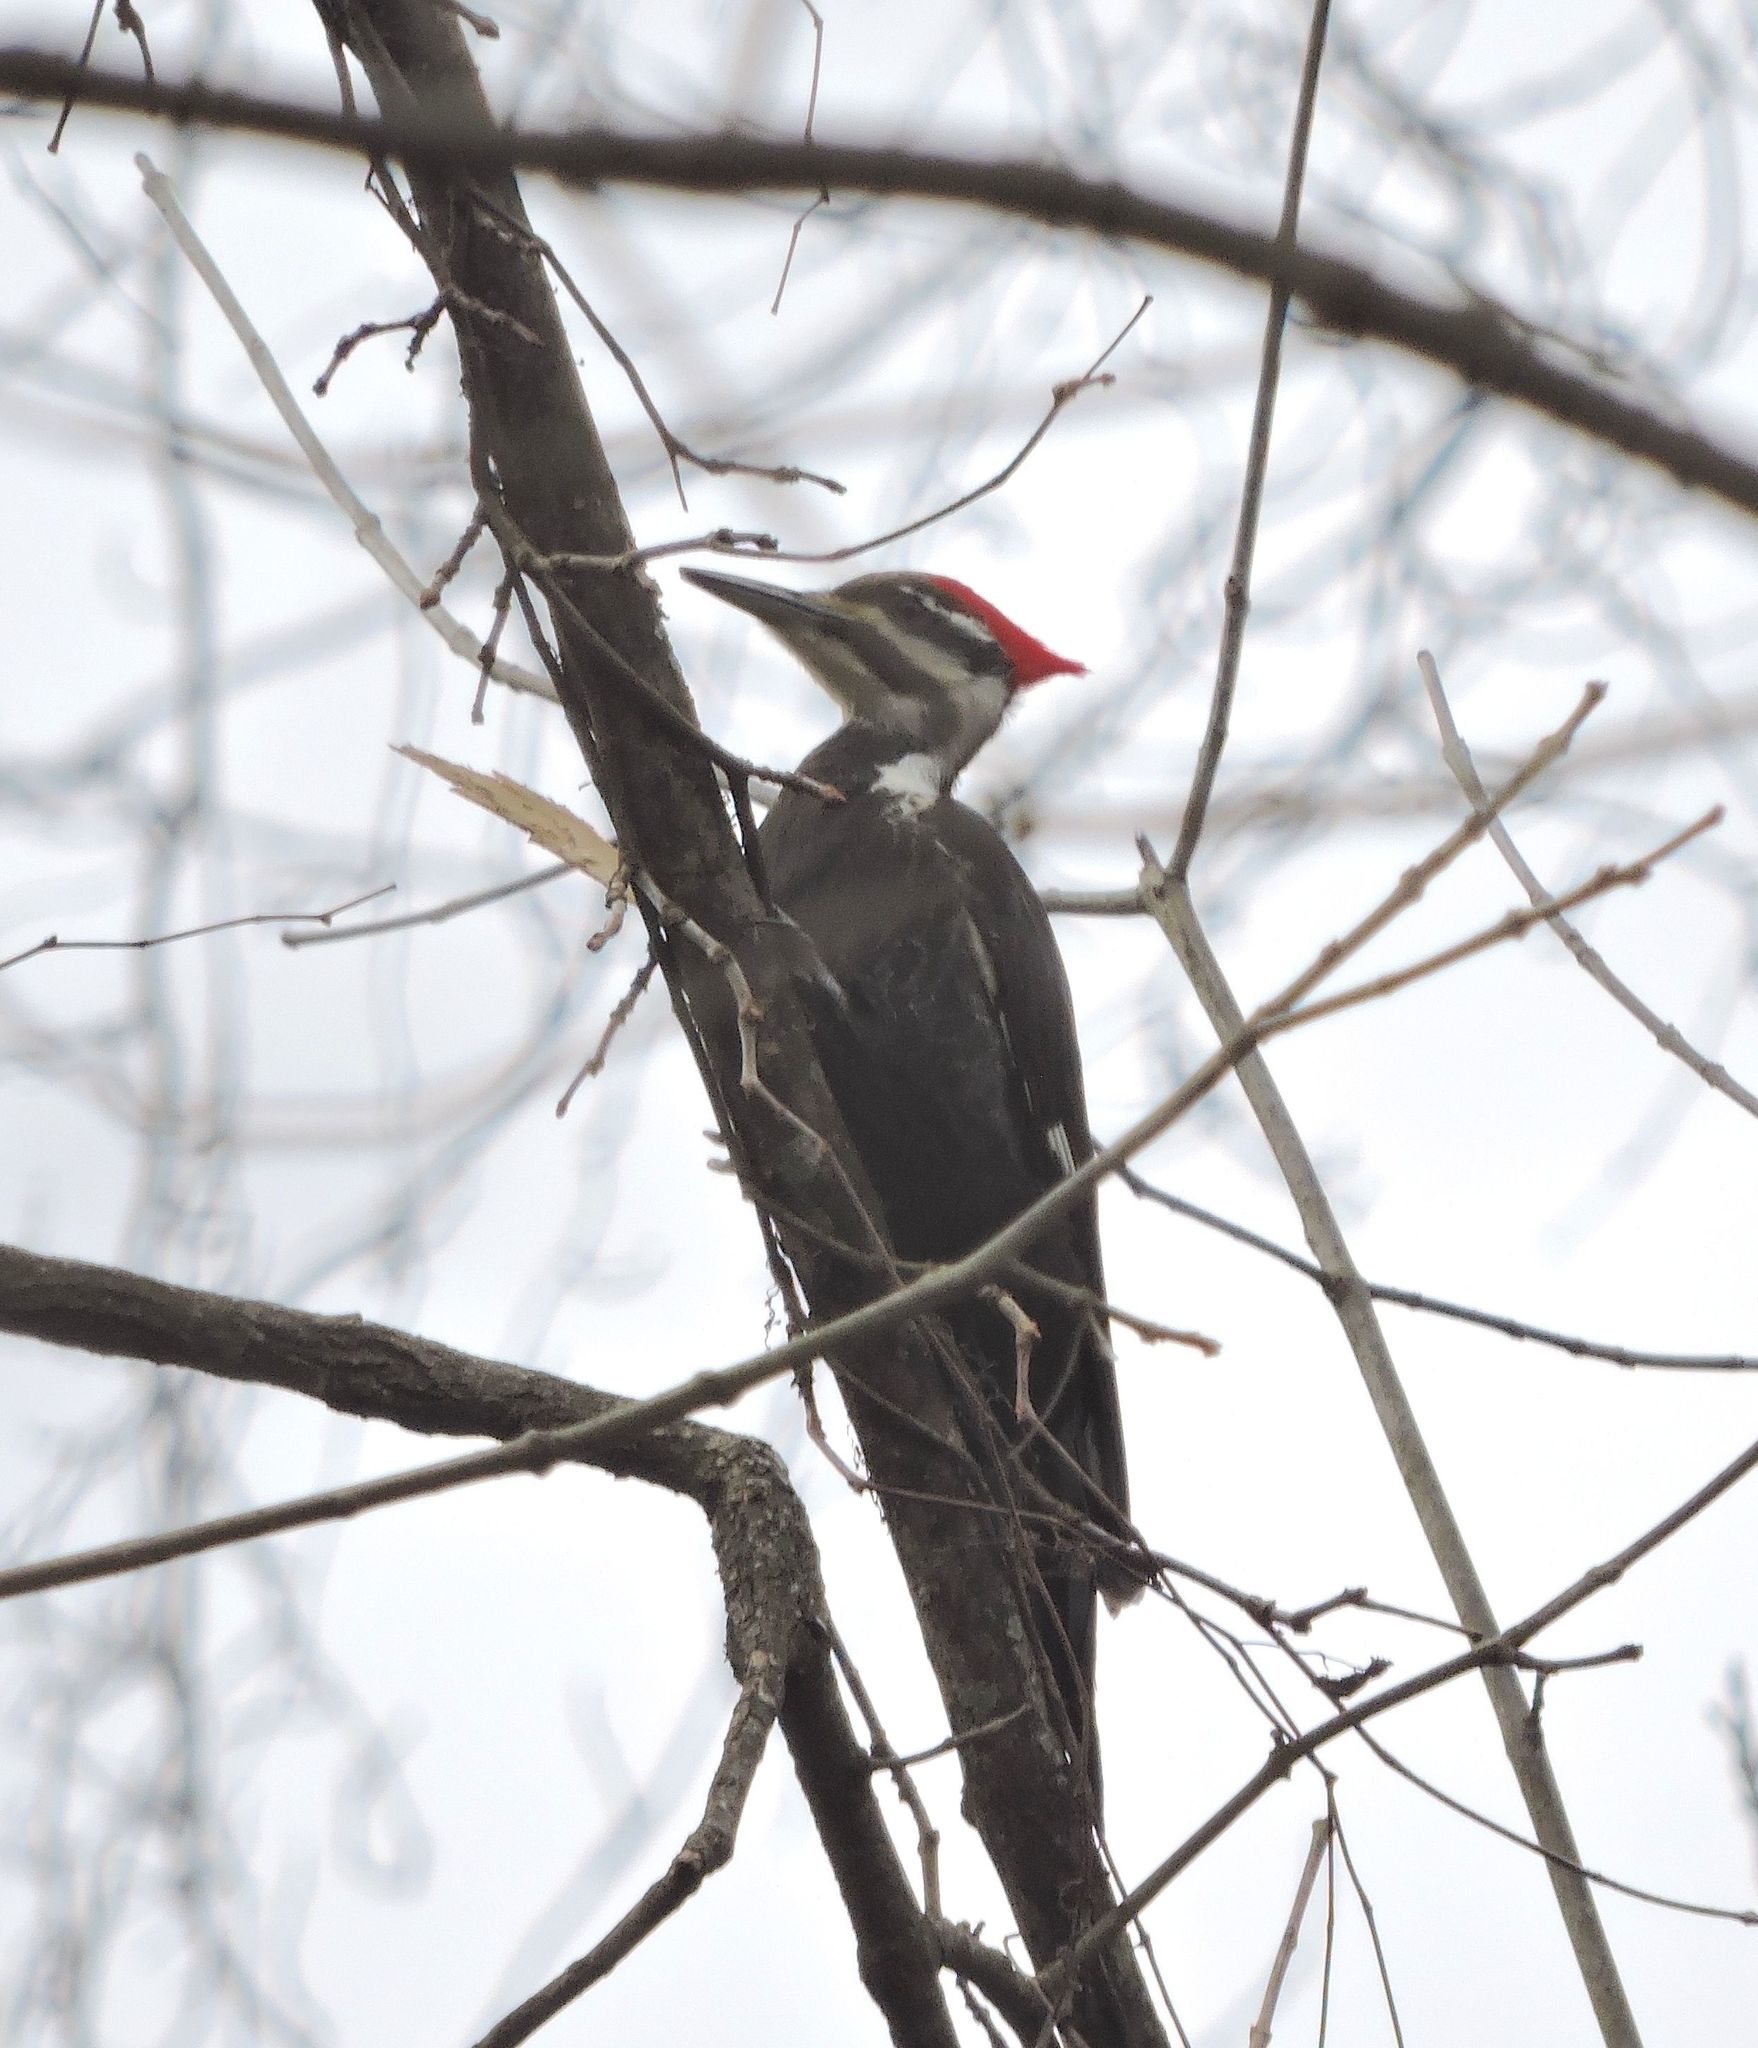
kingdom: Animalia
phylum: Chordata
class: Aves
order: Piciformes
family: Picidae
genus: Dryocopus
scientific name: Dryocopus pileatus
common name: Pileated woodpecker
